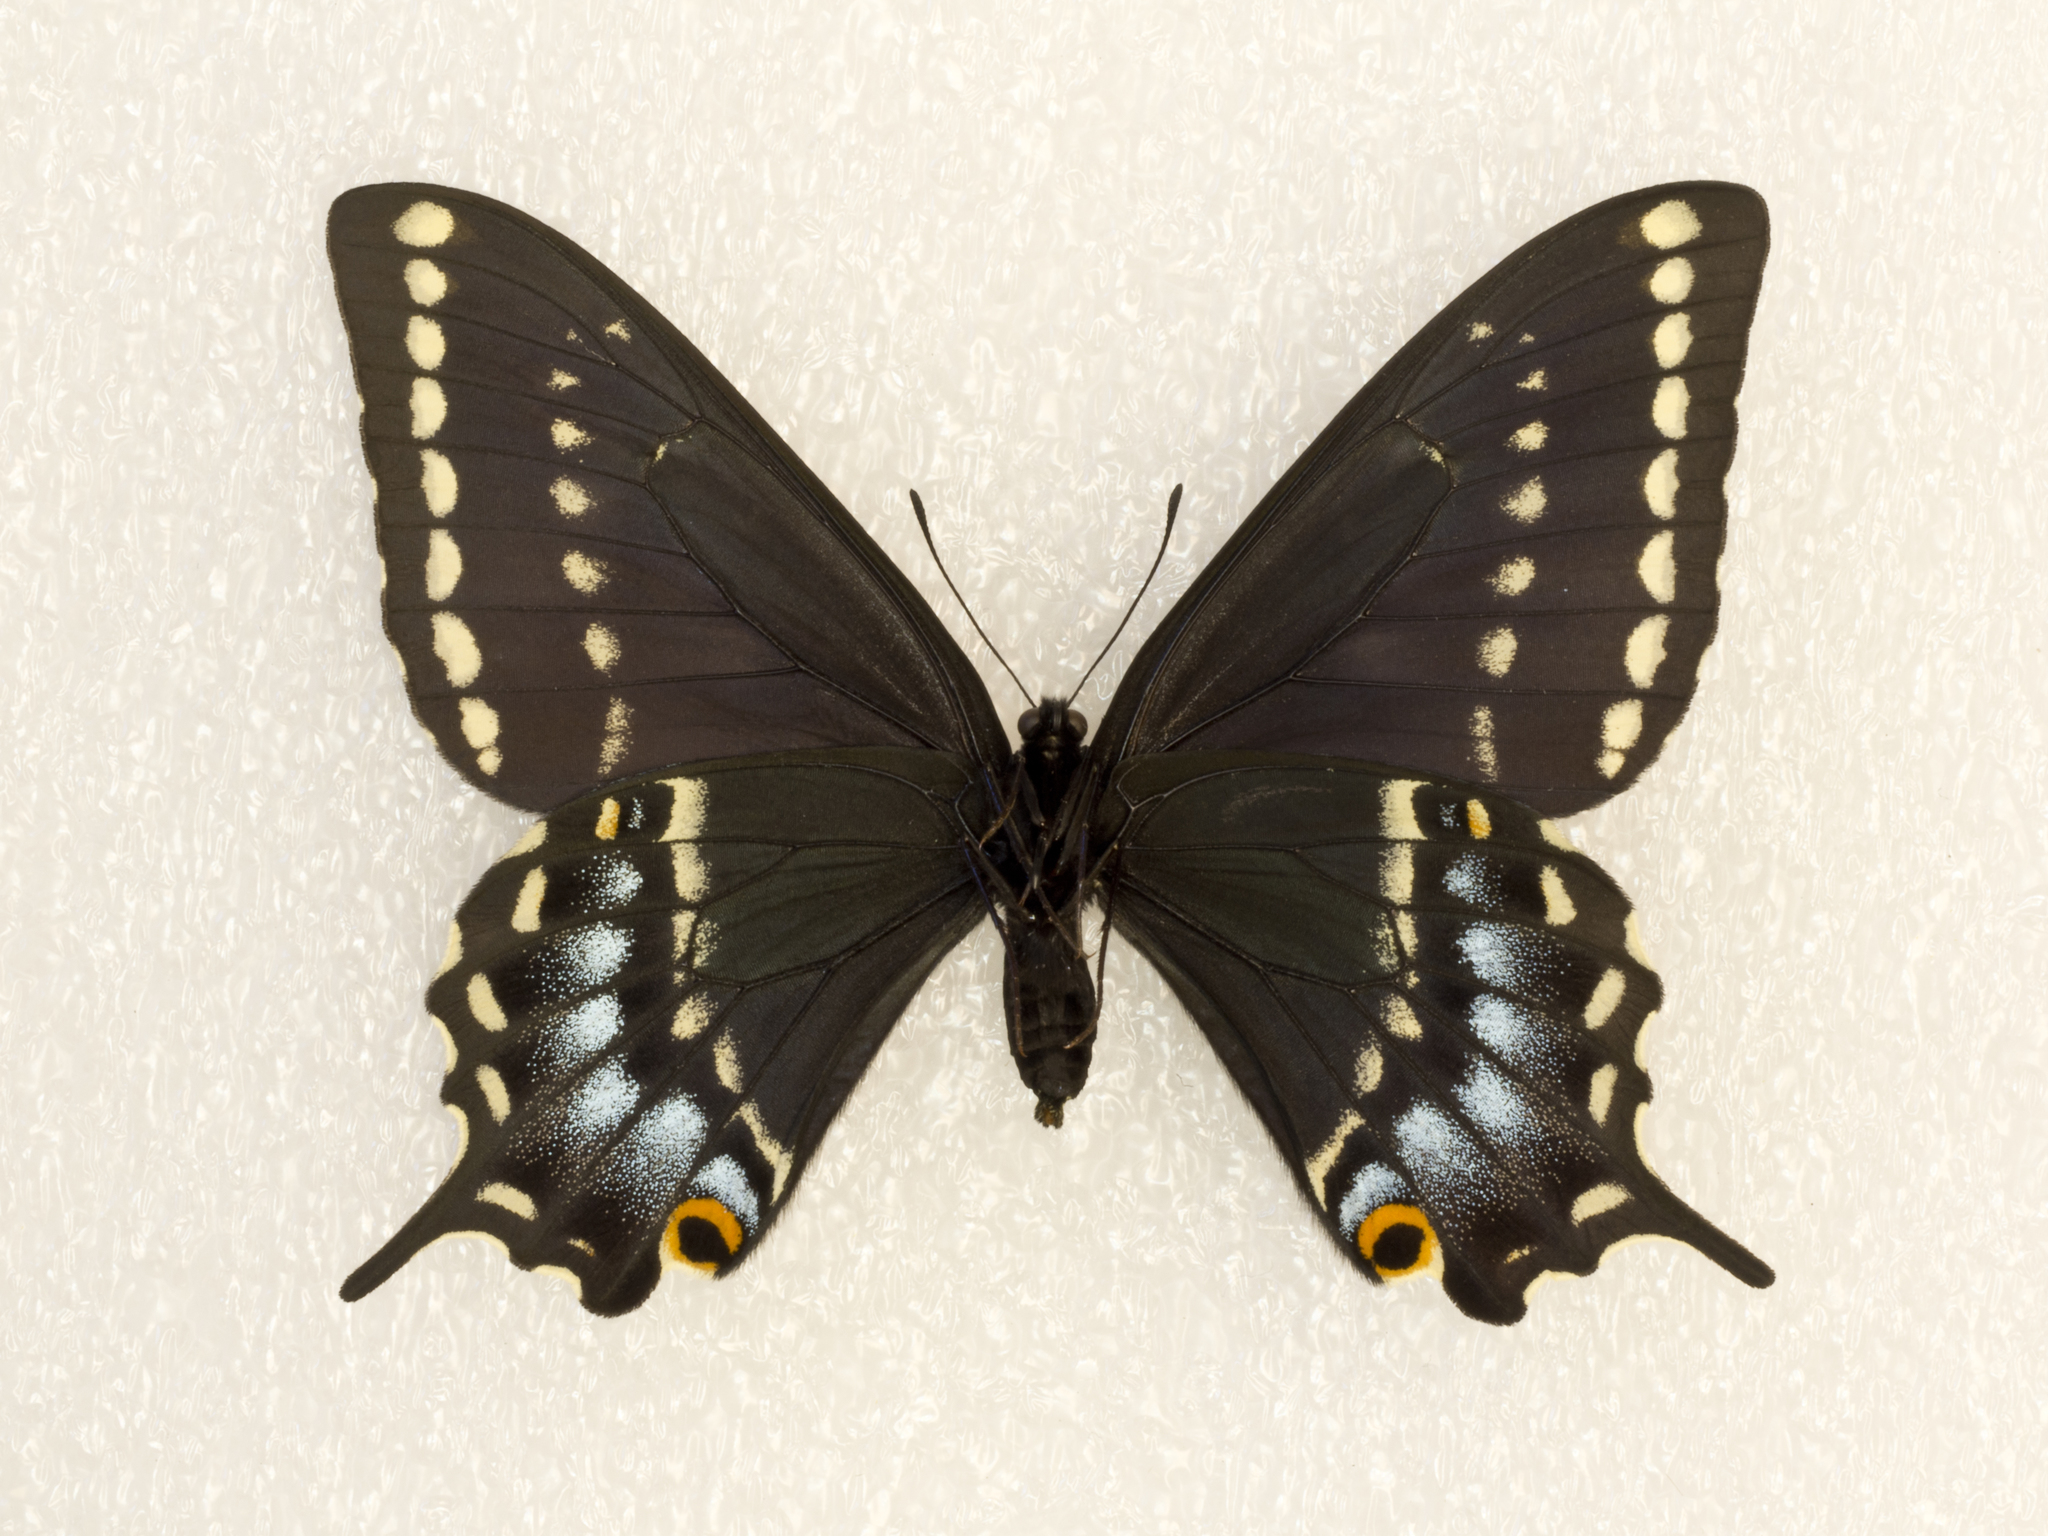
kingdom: Animalia
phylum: Arthropoda
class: Insecta
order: Lepidoptera
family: Papilionidae
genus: Papilio
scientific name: Papilio indra
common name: Cliff swallowtail
